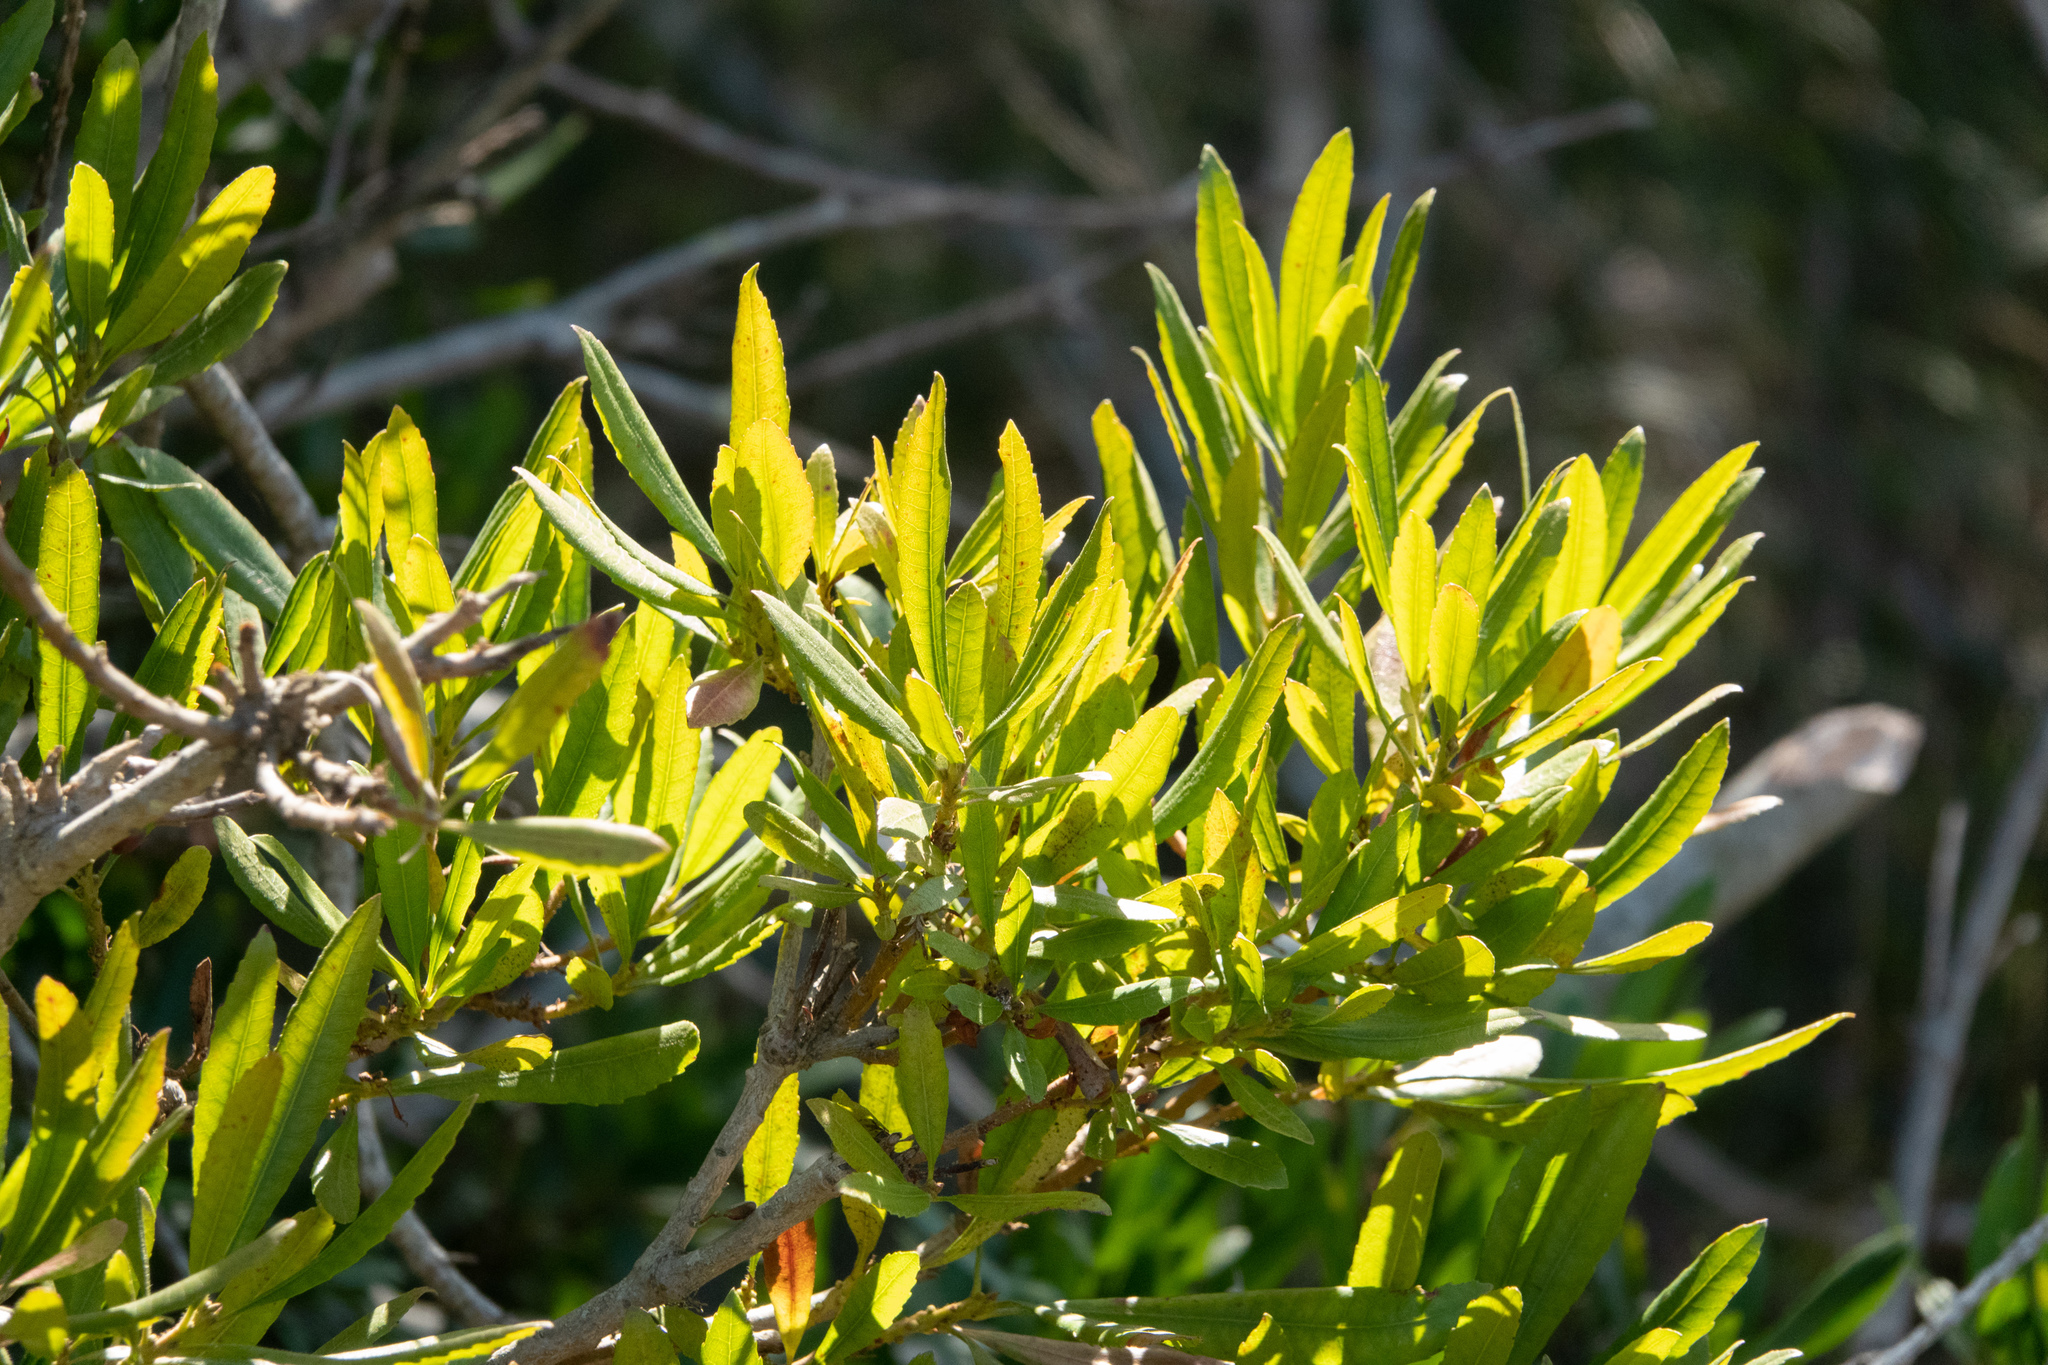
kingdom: Plantae
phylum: Tracheophyta
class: Magnoliopsida
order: Fagales
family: Myricaceae
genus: Morella
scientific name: Morella californica
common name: California wax-myrtle
